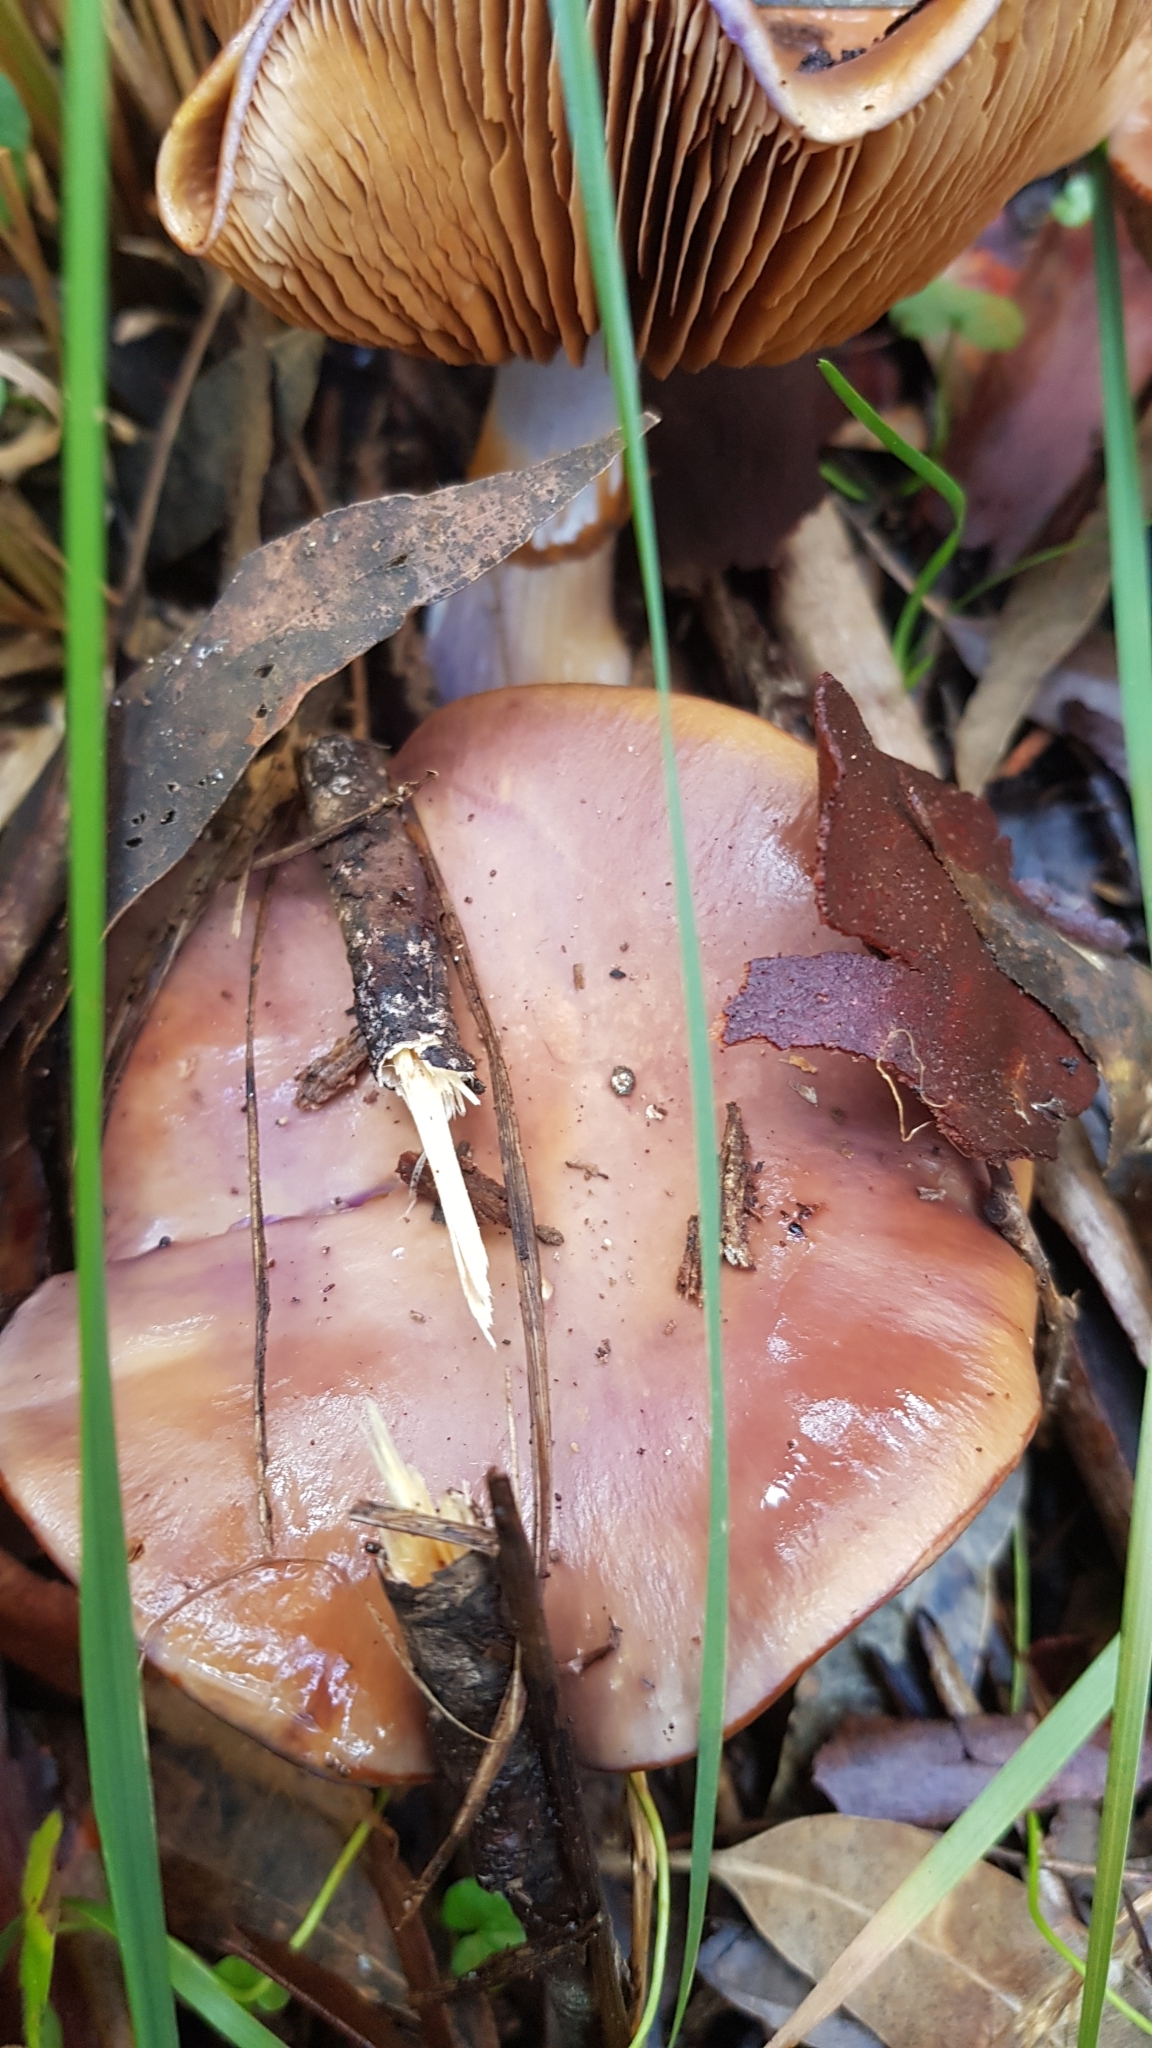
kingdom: Fungi
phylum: Basidiomycota
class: Agaricomycetes
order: Agaricales
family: Cortinariaceae
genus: Cortinarius
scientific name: Cortinarius archeri
